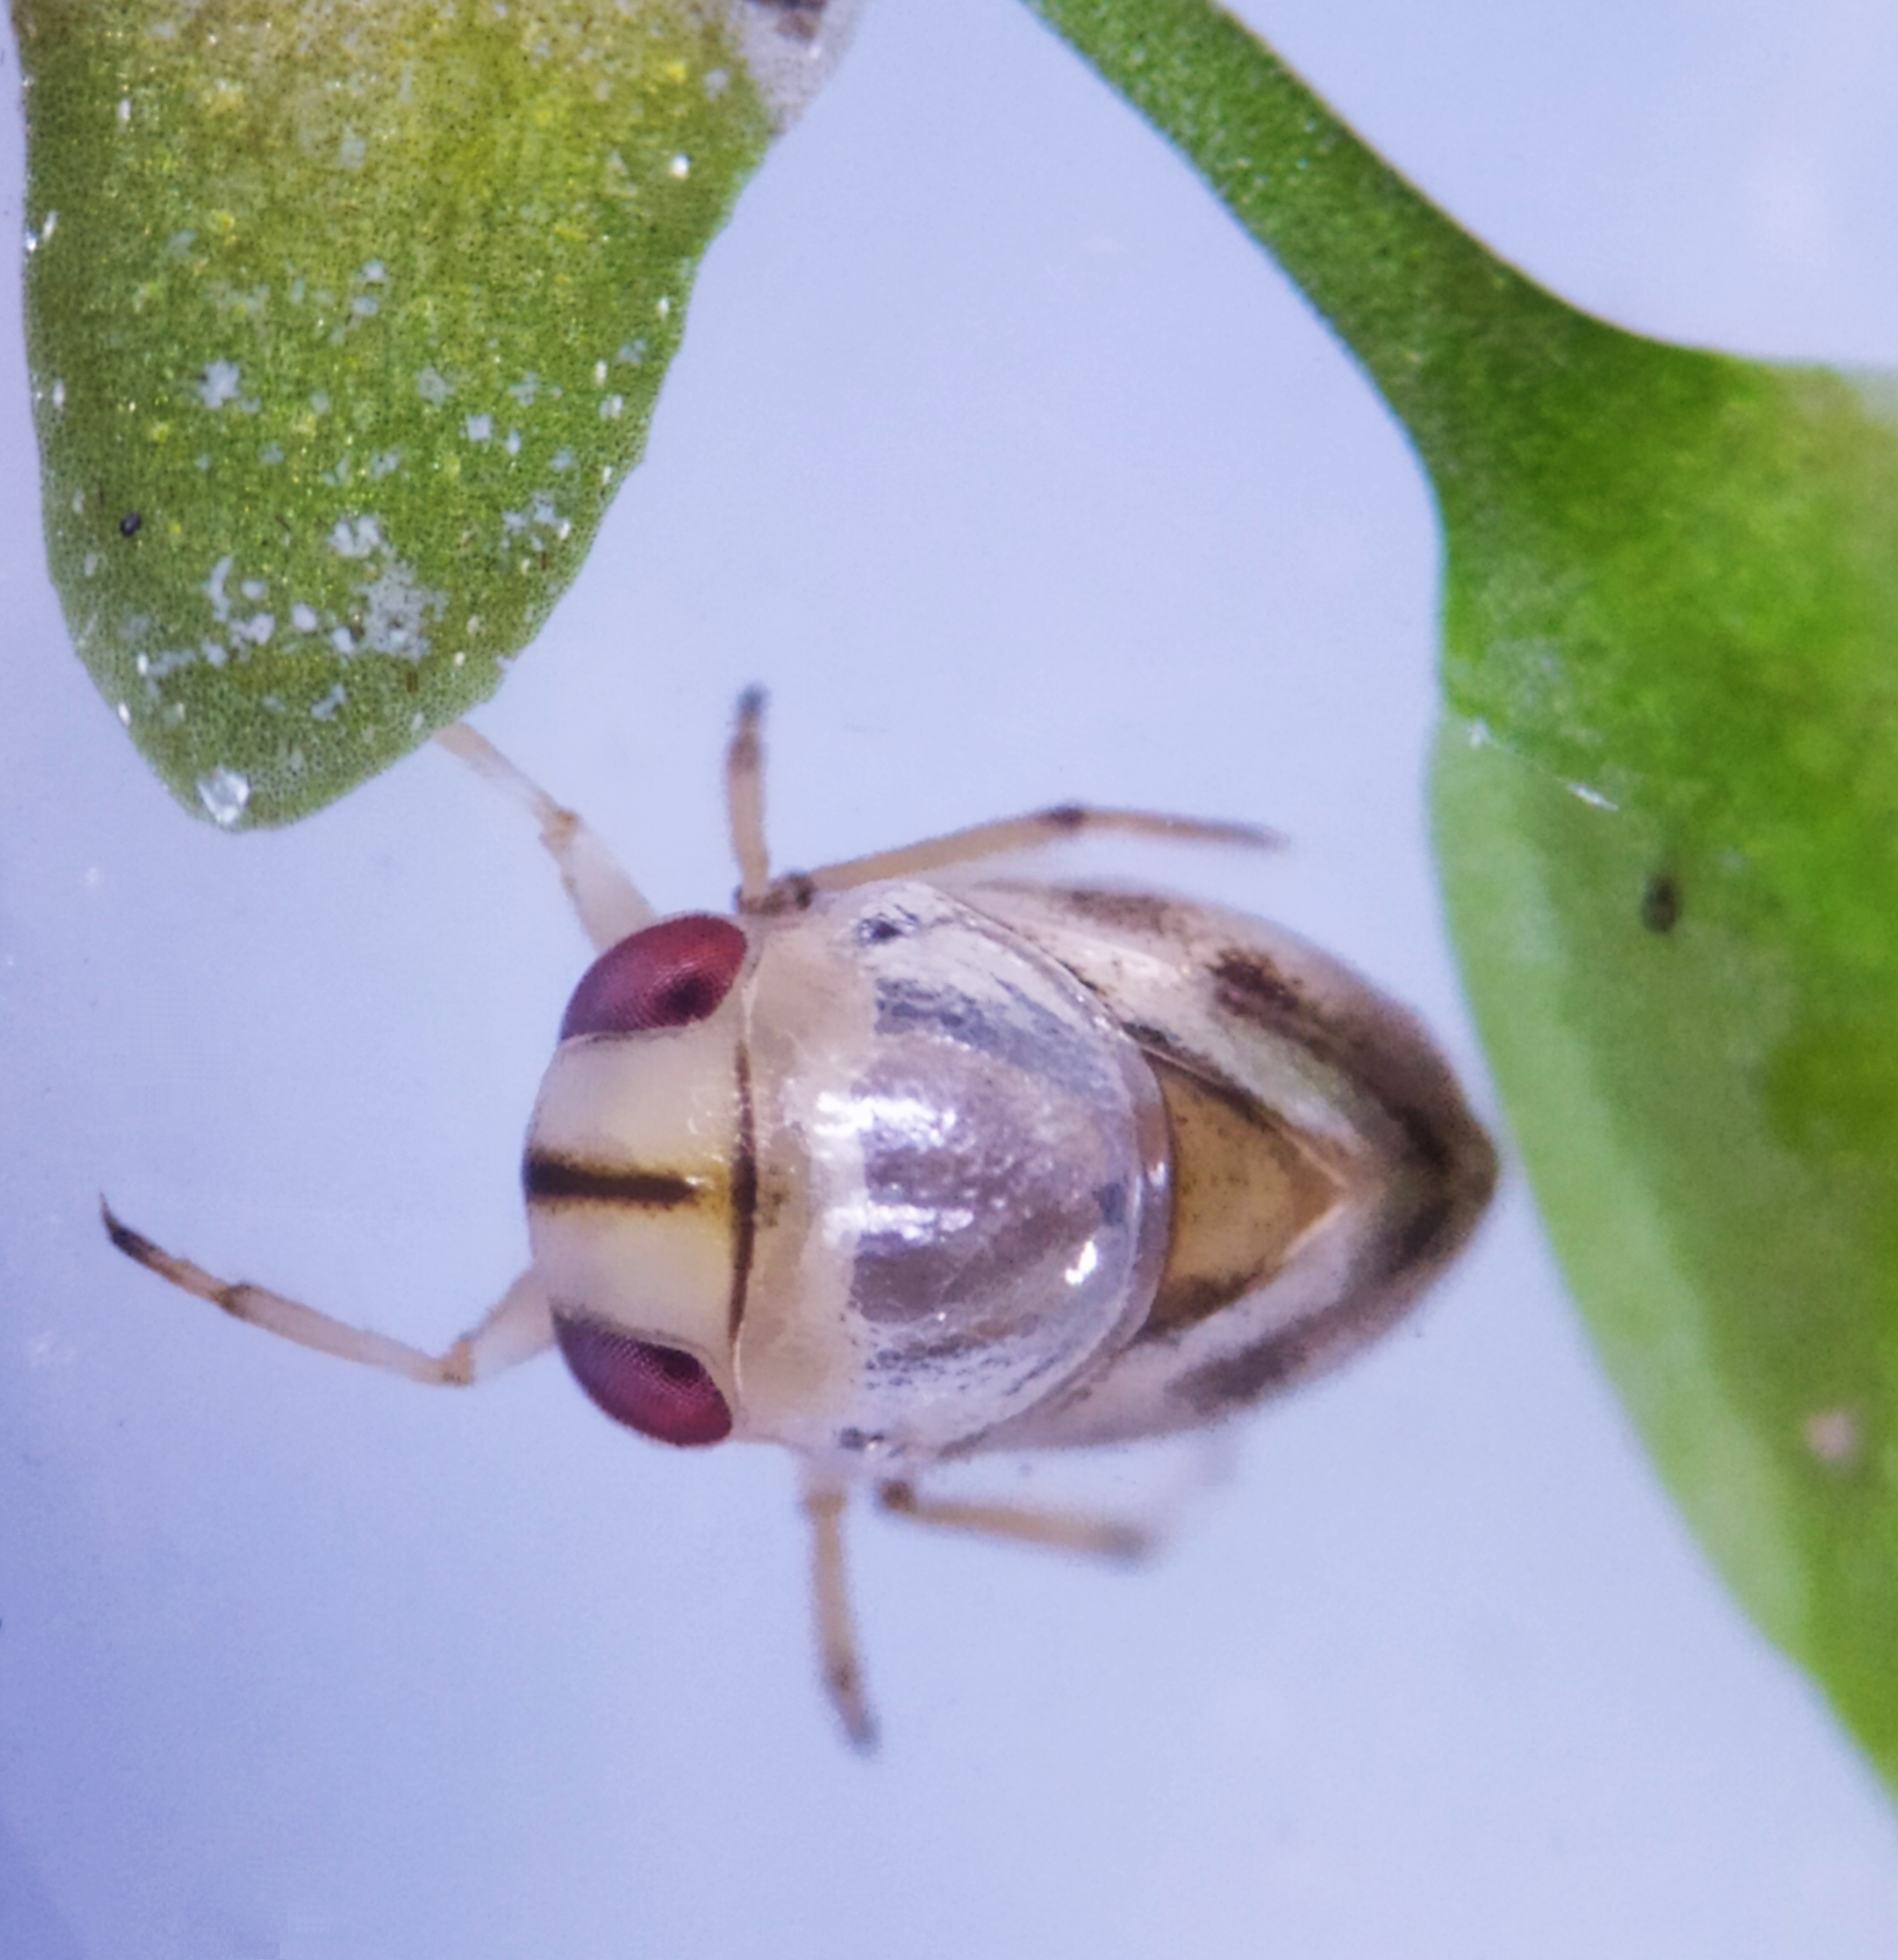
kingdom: Animalia
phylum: Arthropoda
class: Insecta
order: Hemiptera
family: Pleidae
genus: Plea
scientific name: Plea minutissima
